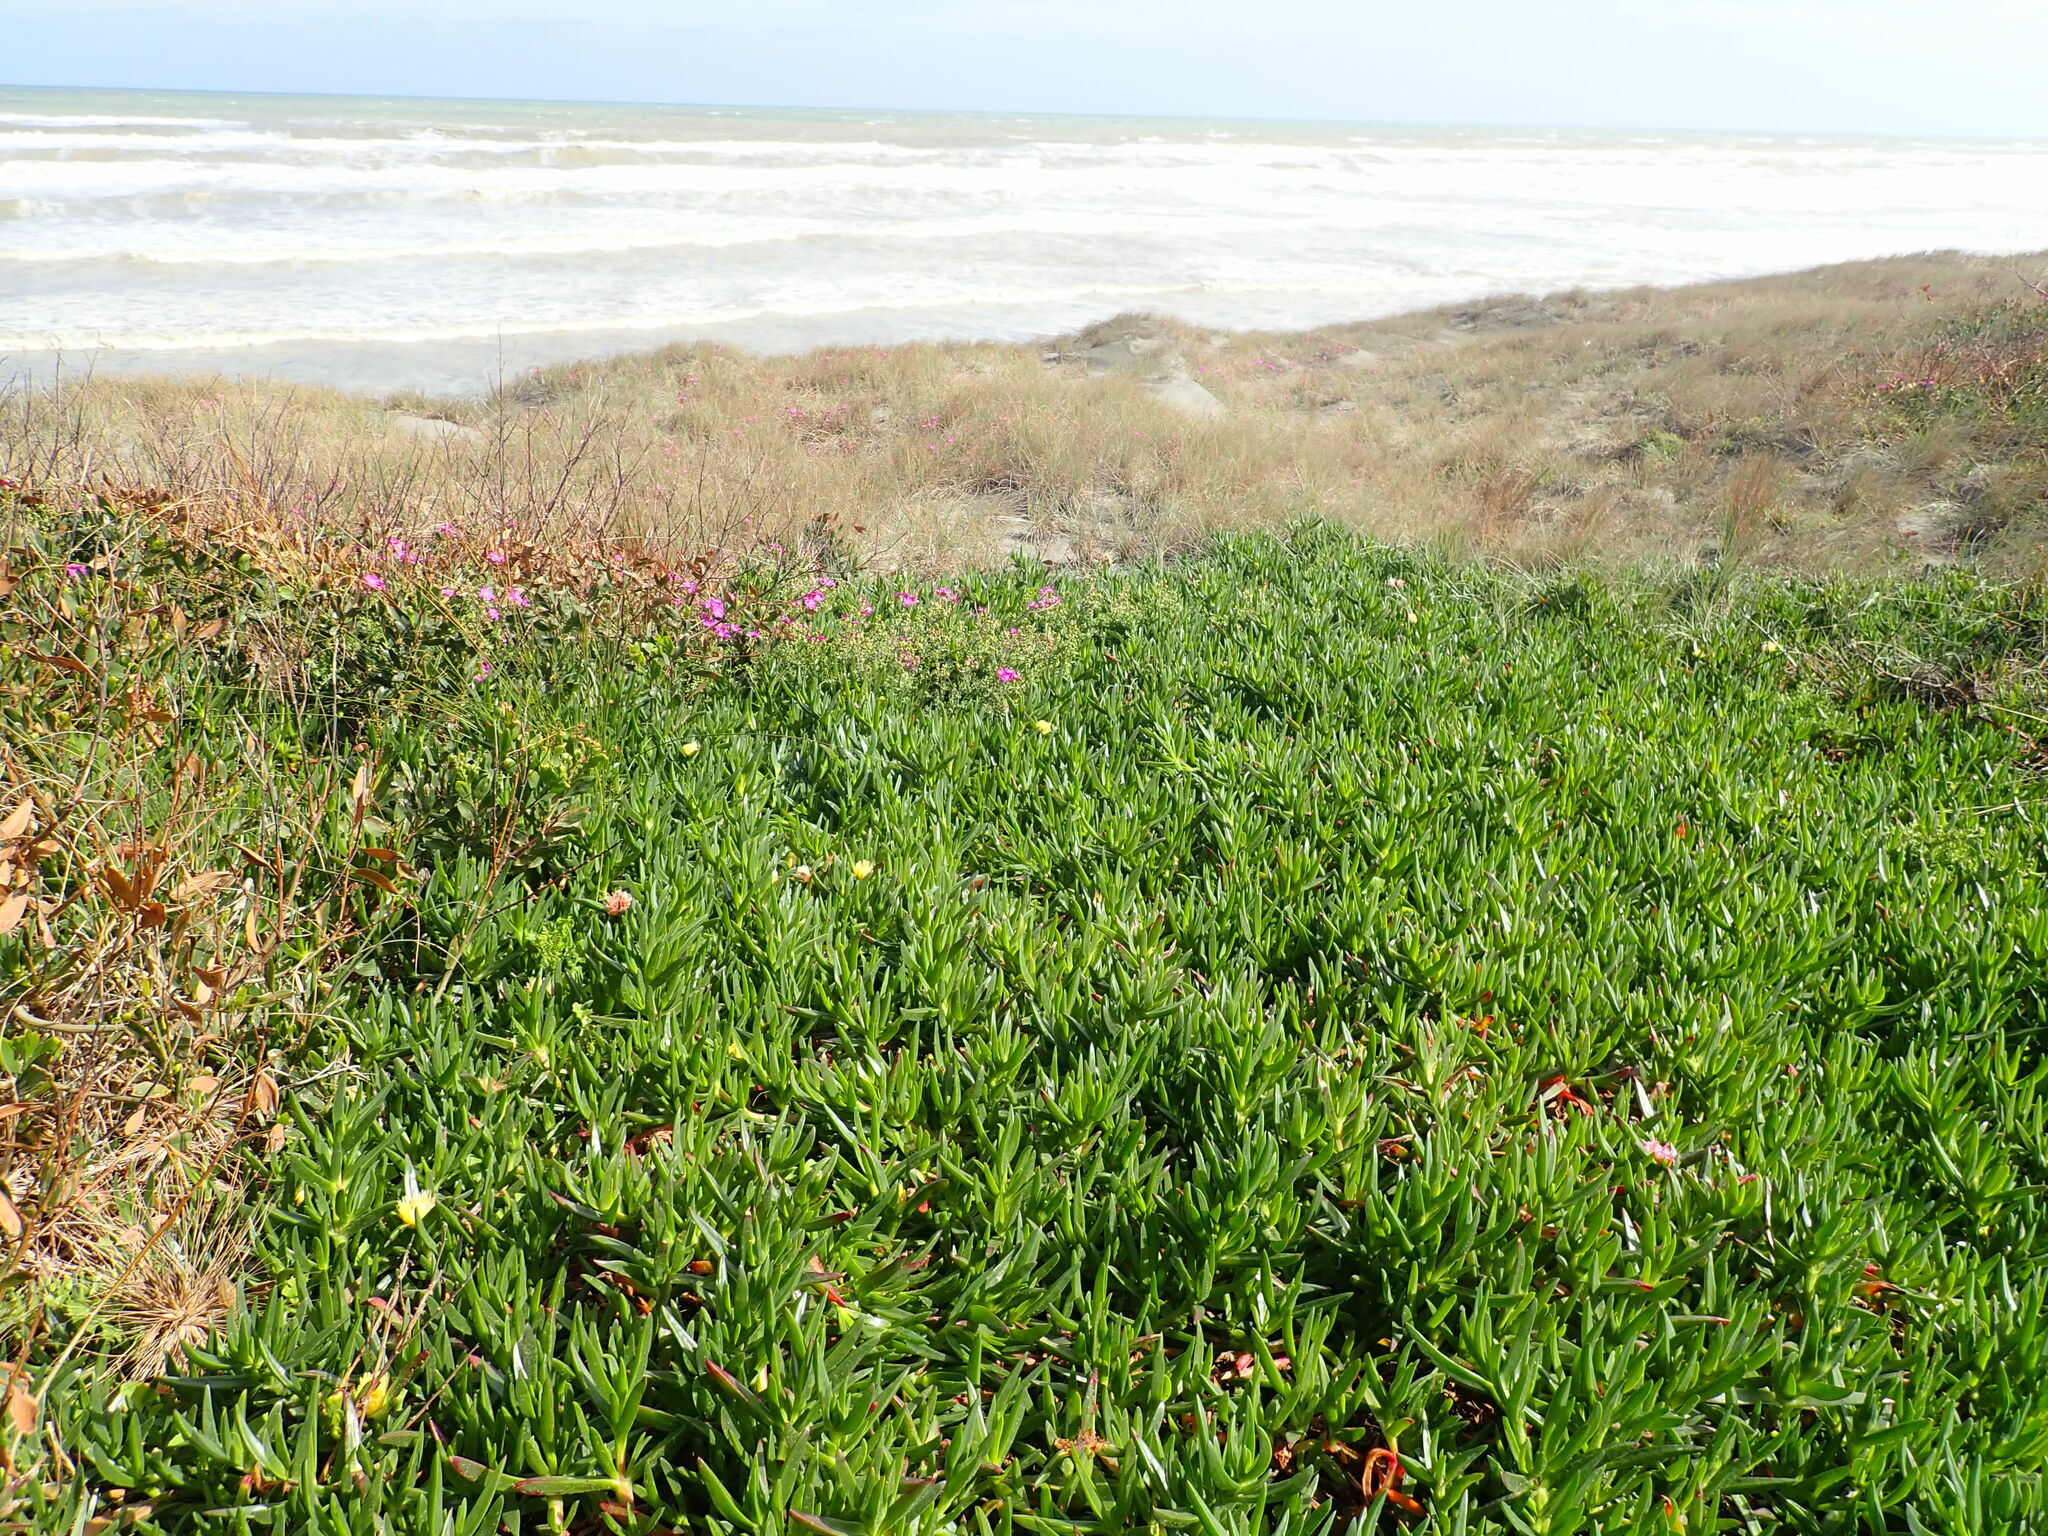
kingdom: Plantae
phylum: Tracheophyta
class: Magnoliopsida
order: Caryophyllales
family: Aizoaceae
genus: Carpobrotus
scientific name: Carpobrotus edulis
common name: Hottentot-fig
